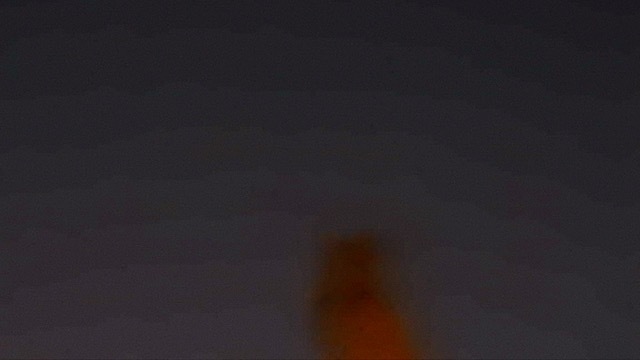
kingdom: Animalia
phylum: Chordata
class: Aves
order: Strigiformes
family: Strigidae
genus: Bubo
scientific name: Bubo virginianus
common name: Great horned owl
